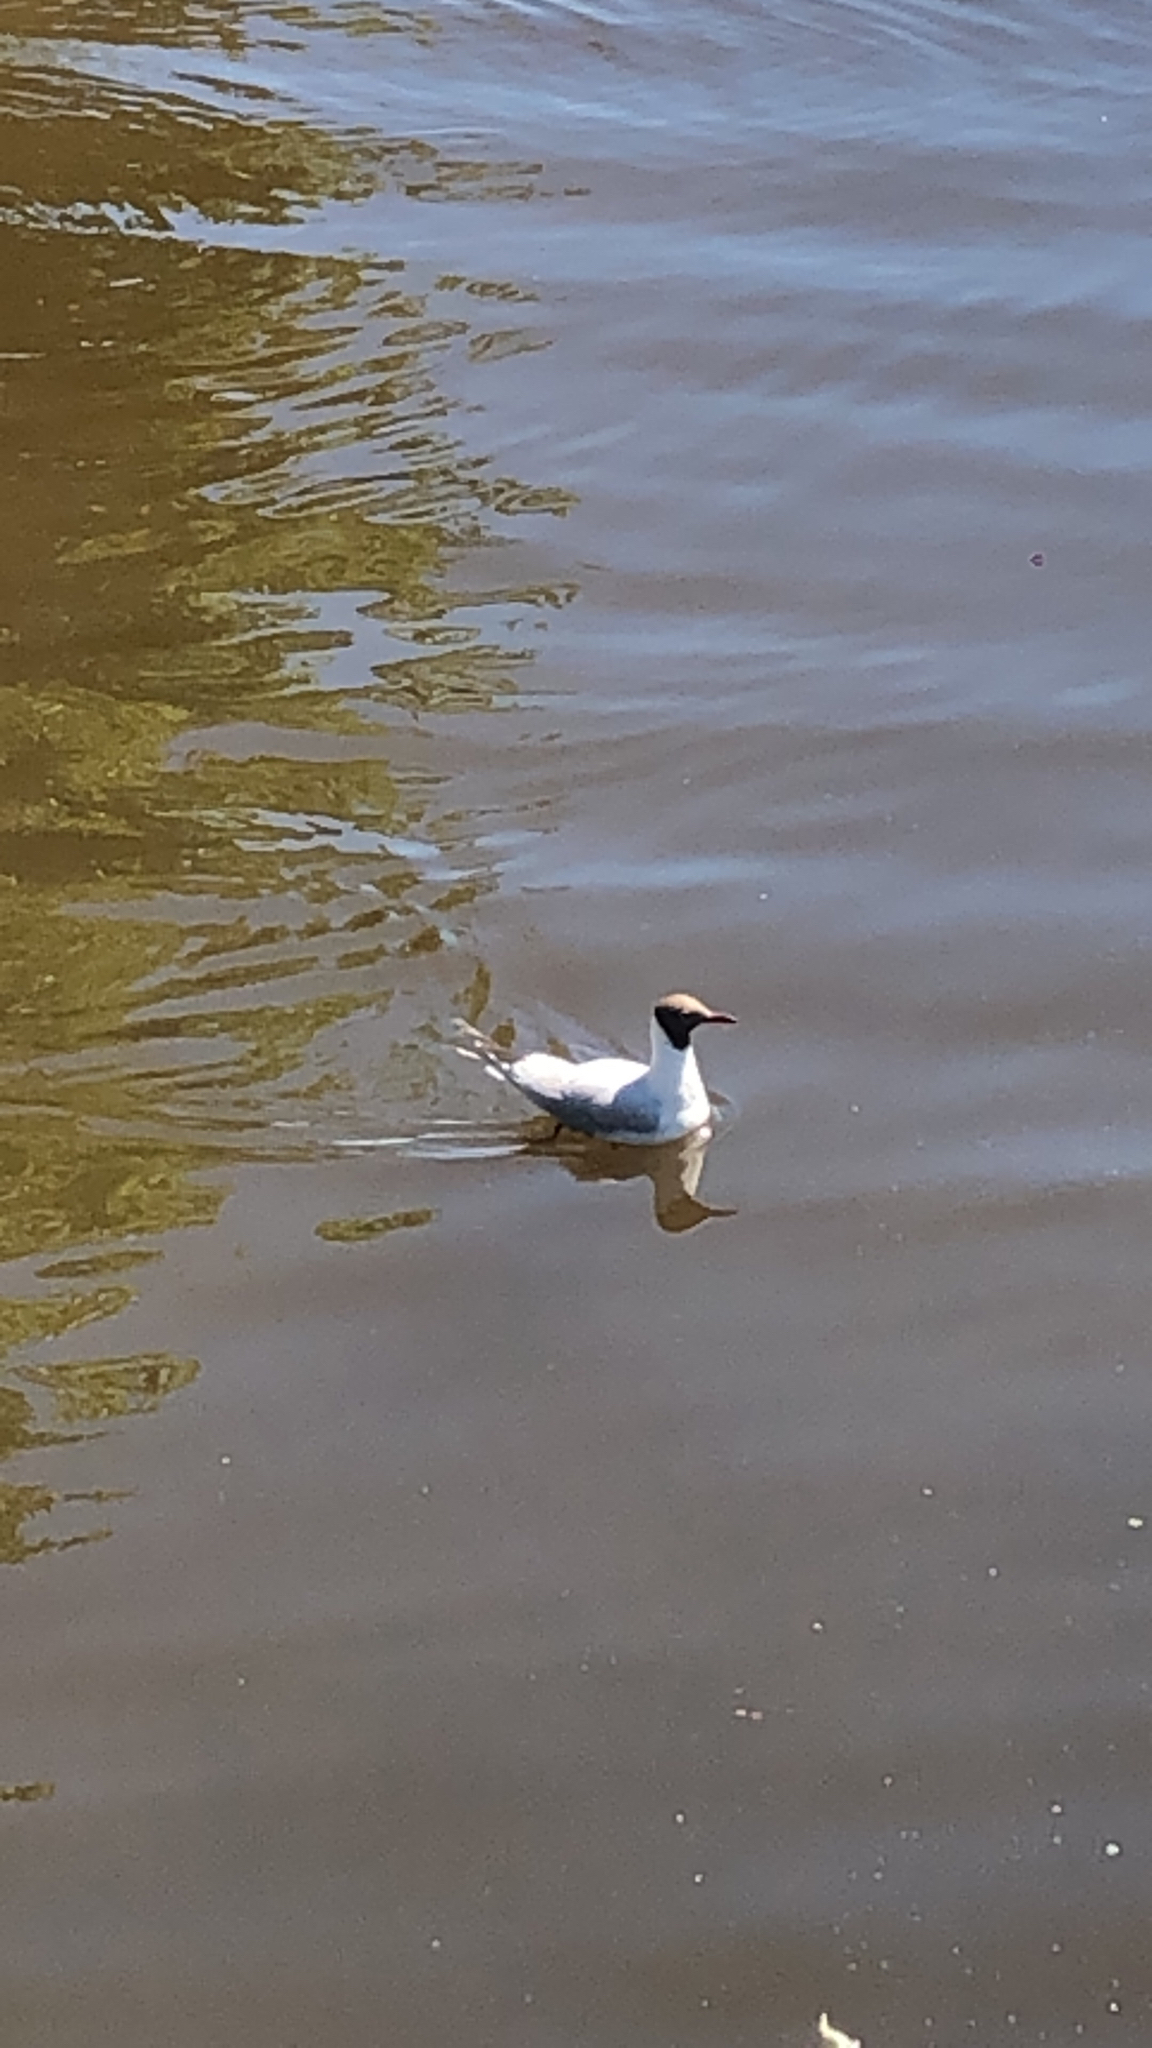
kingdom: Animalia
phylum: Chordata
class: Aves
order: Charadriiformes
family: Laridae
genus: Chroicocephalus
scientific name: Chroicocephalus ridibundus
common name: Black-headed gull
